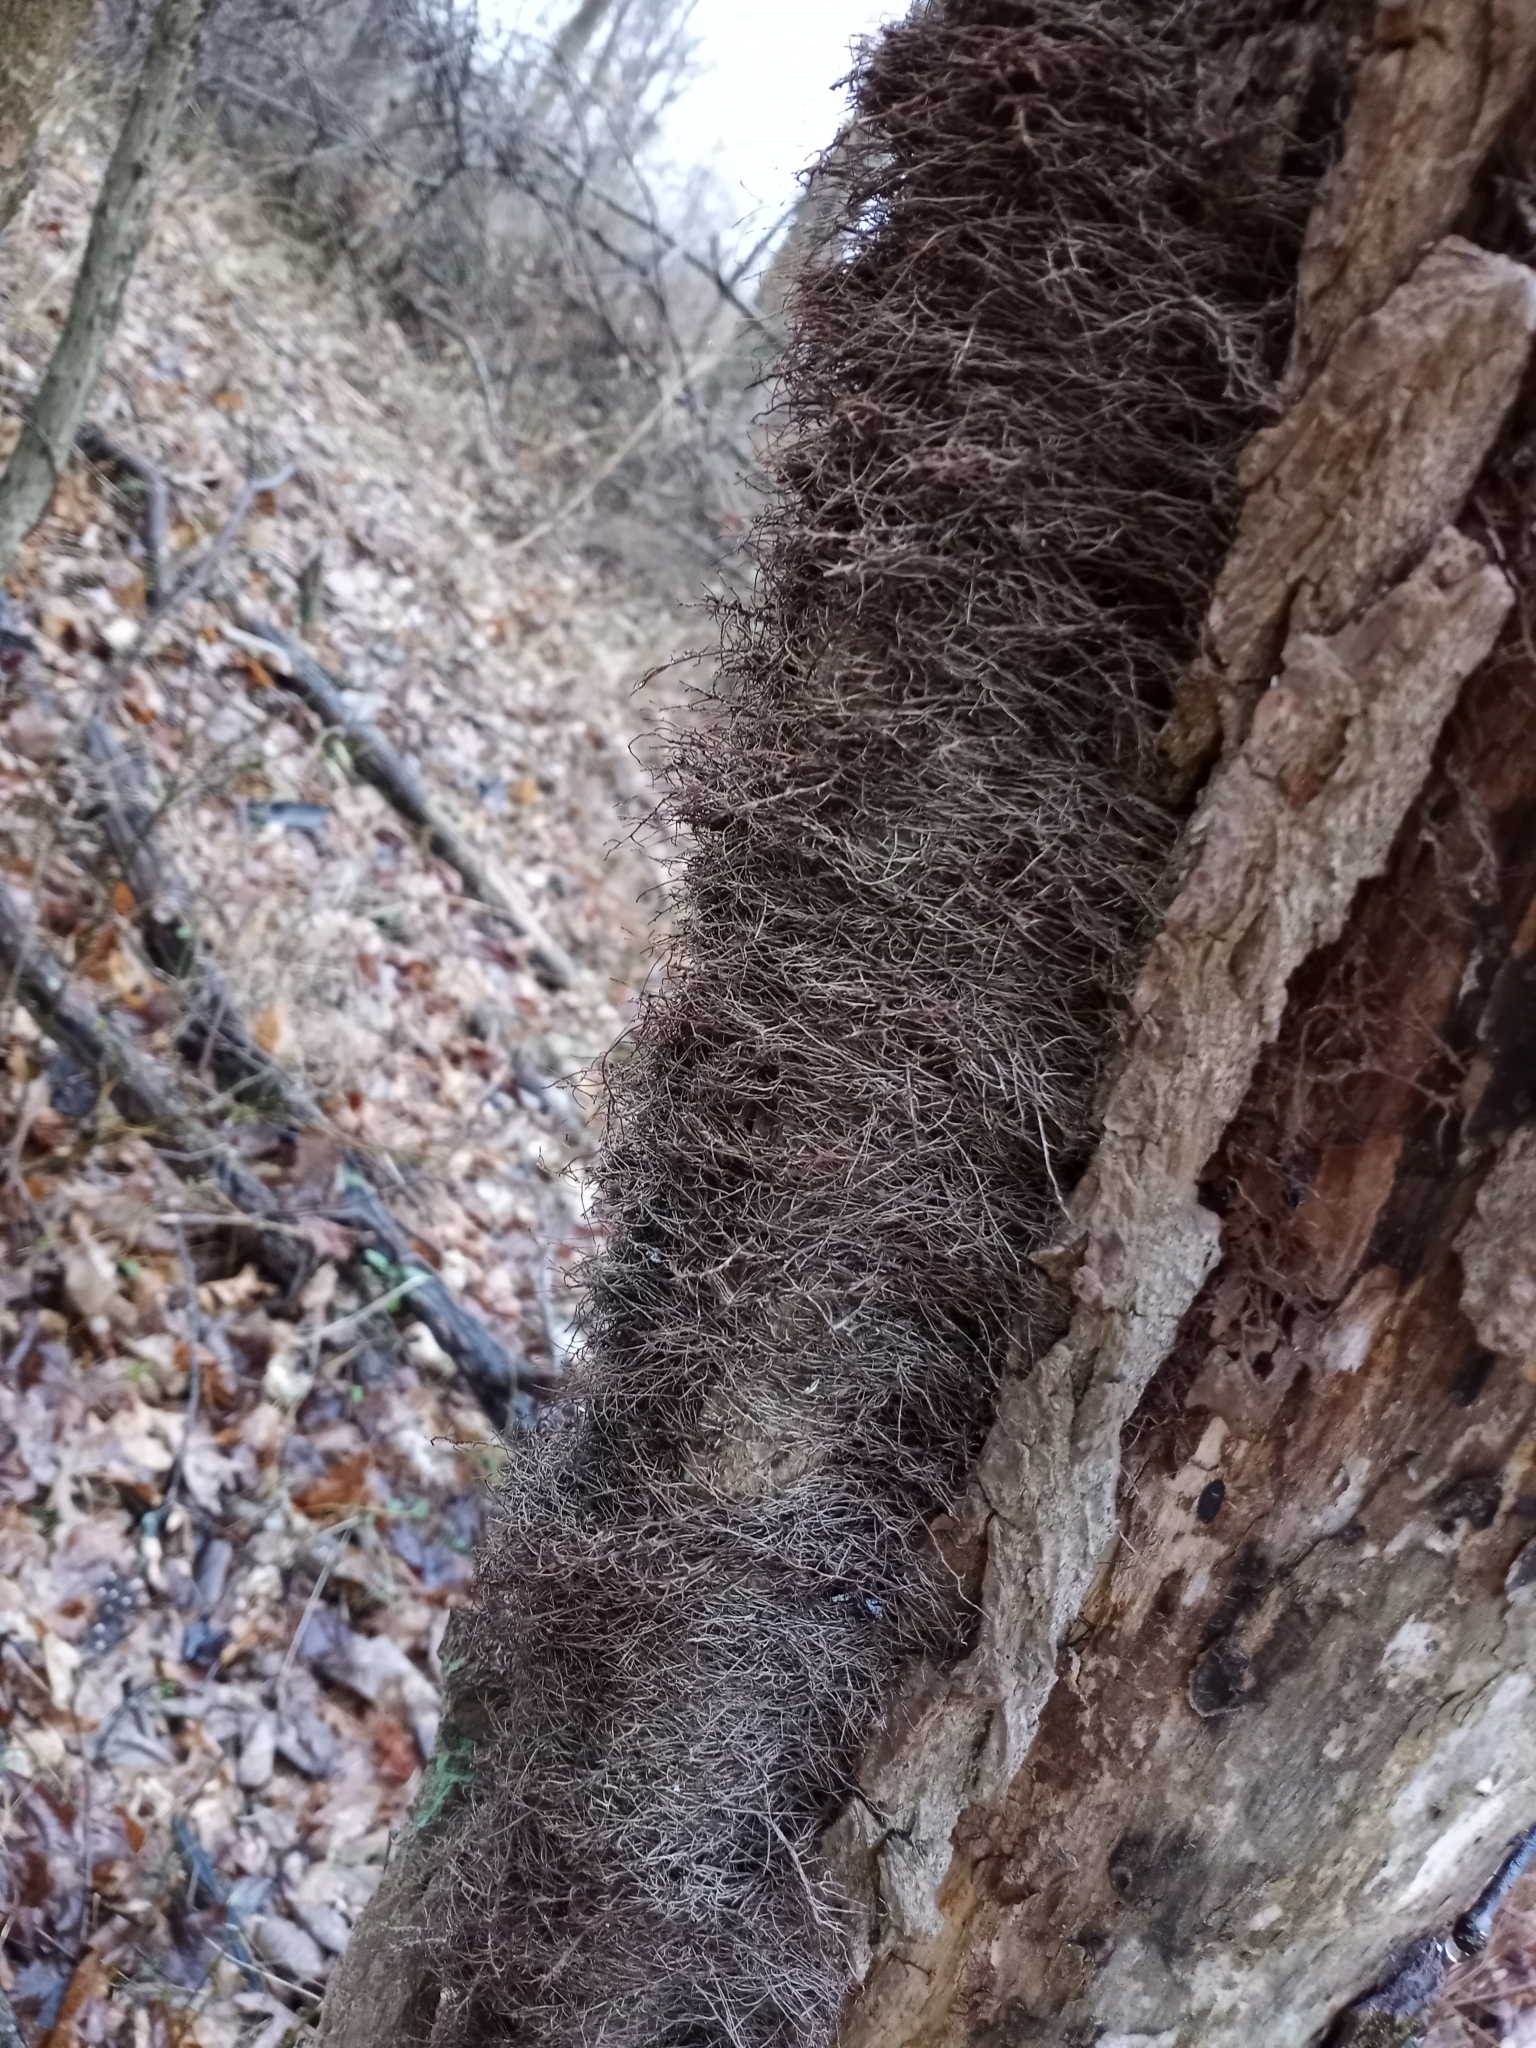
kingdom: Plantae
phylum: Tracheophyta
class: Magnoliopsida
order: Sapindales
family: Anacardiaceae
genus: Toxicodendron
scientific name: Toxicodendron radicans
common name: Poison ivy
